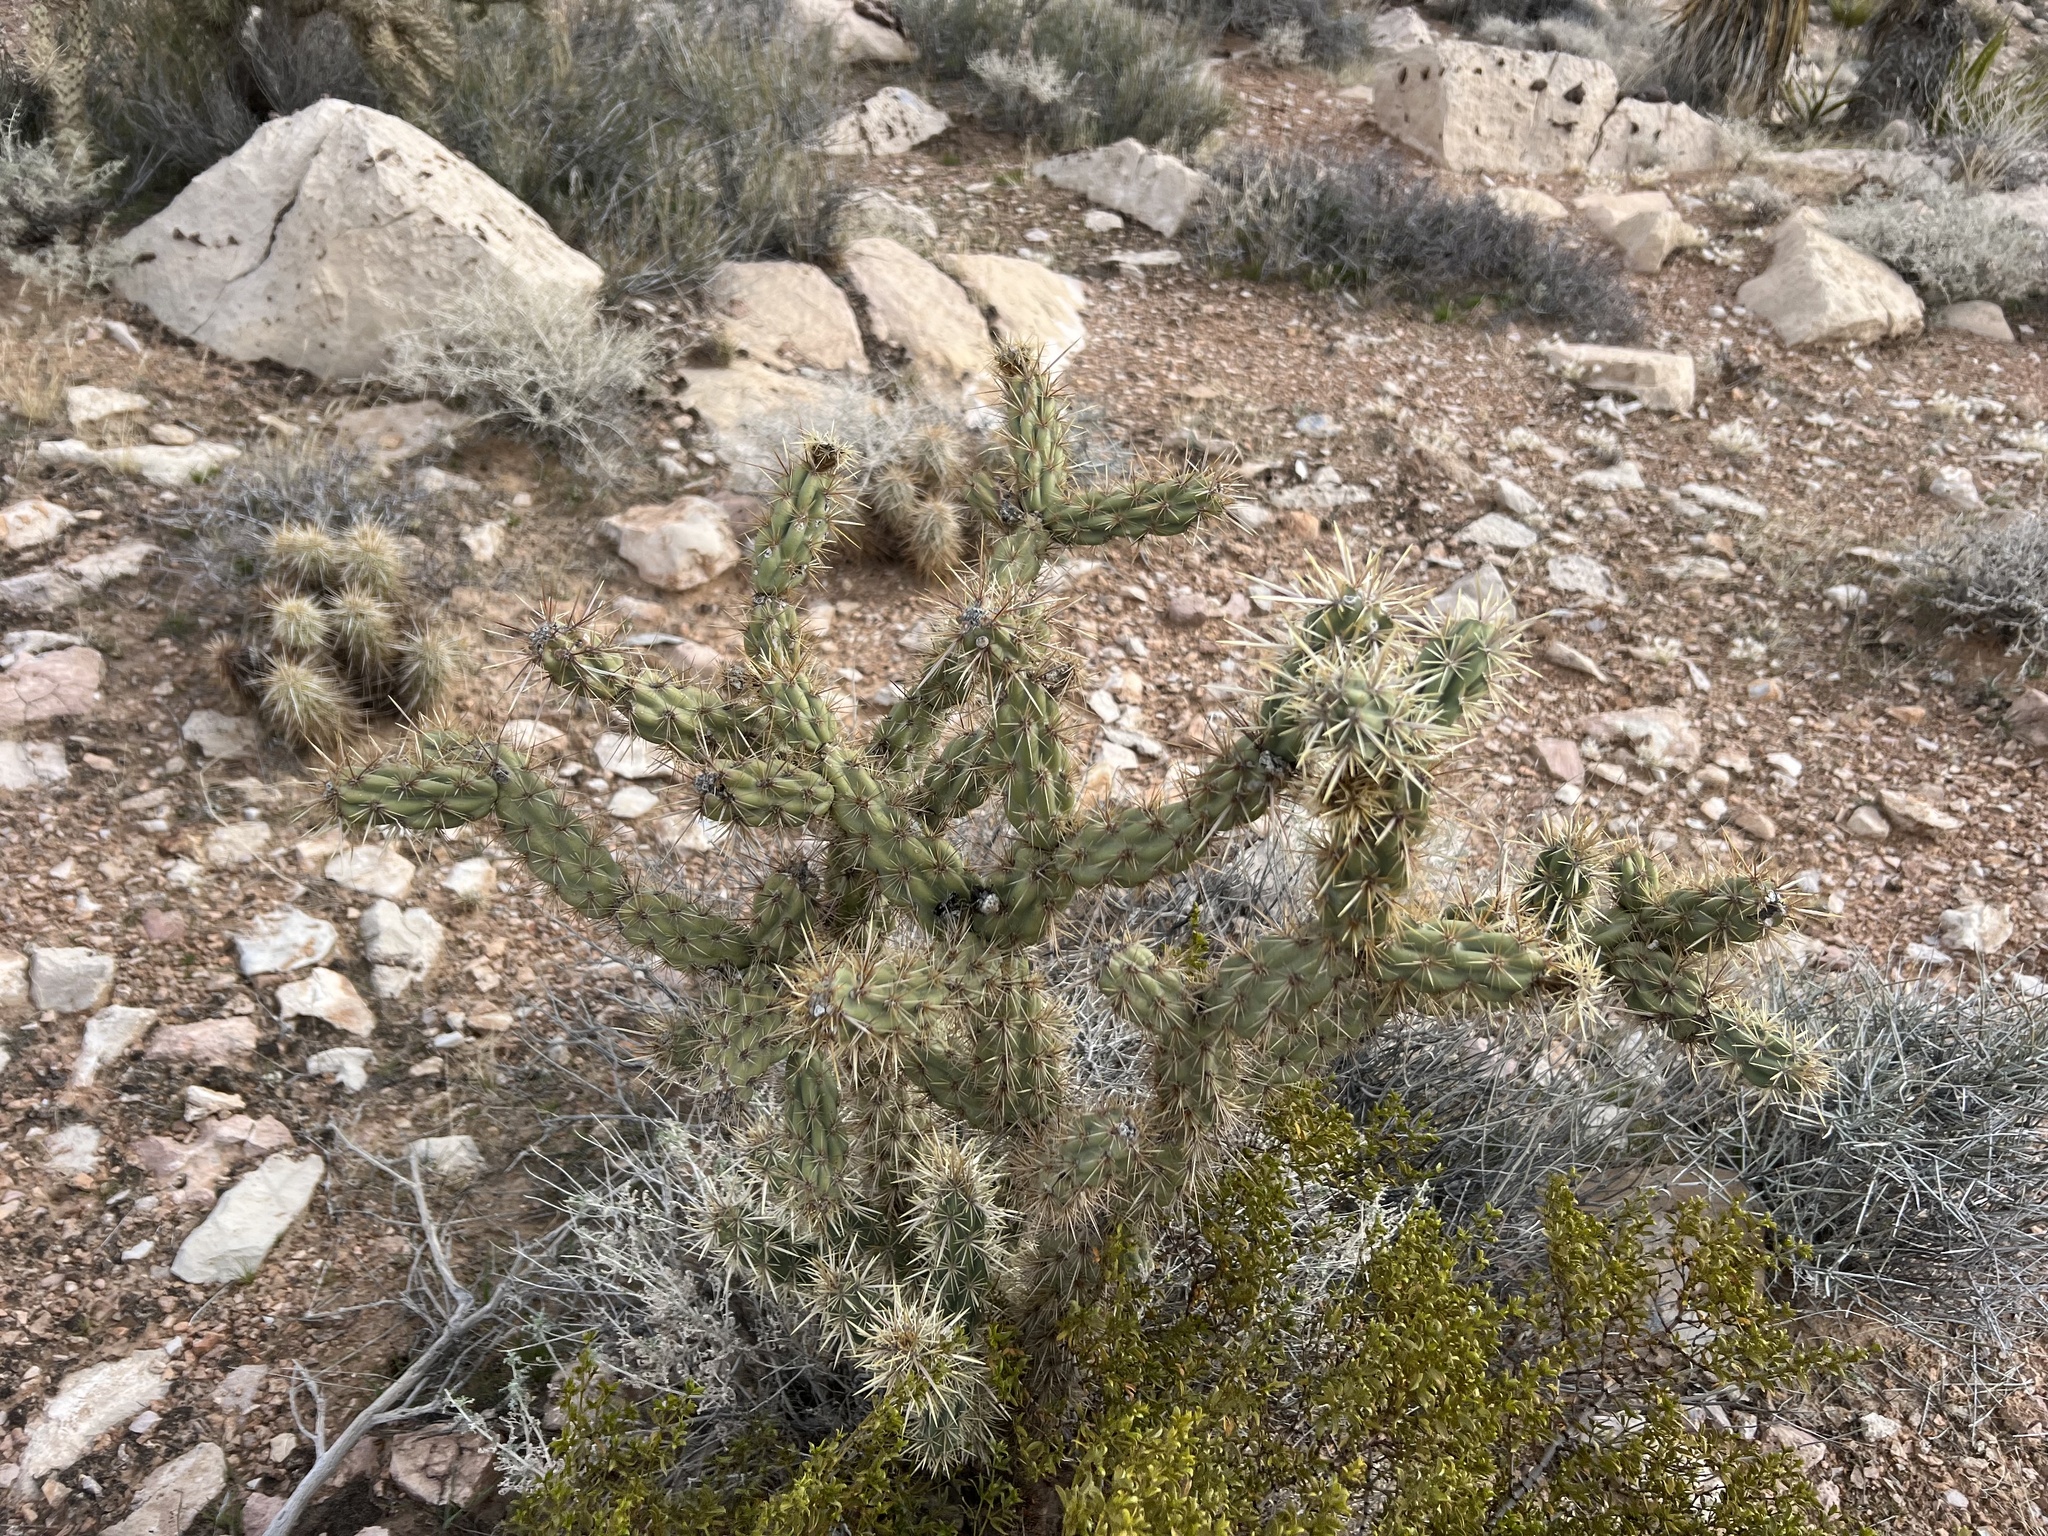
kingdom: Plantae
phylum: Tracheophyta
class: Magnoliopsida
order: Caryophyllales
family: Cactaceae
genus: Cylindropuntia
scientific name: Cylindropuntia acanthocarpa
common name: Buckhorn cholla
